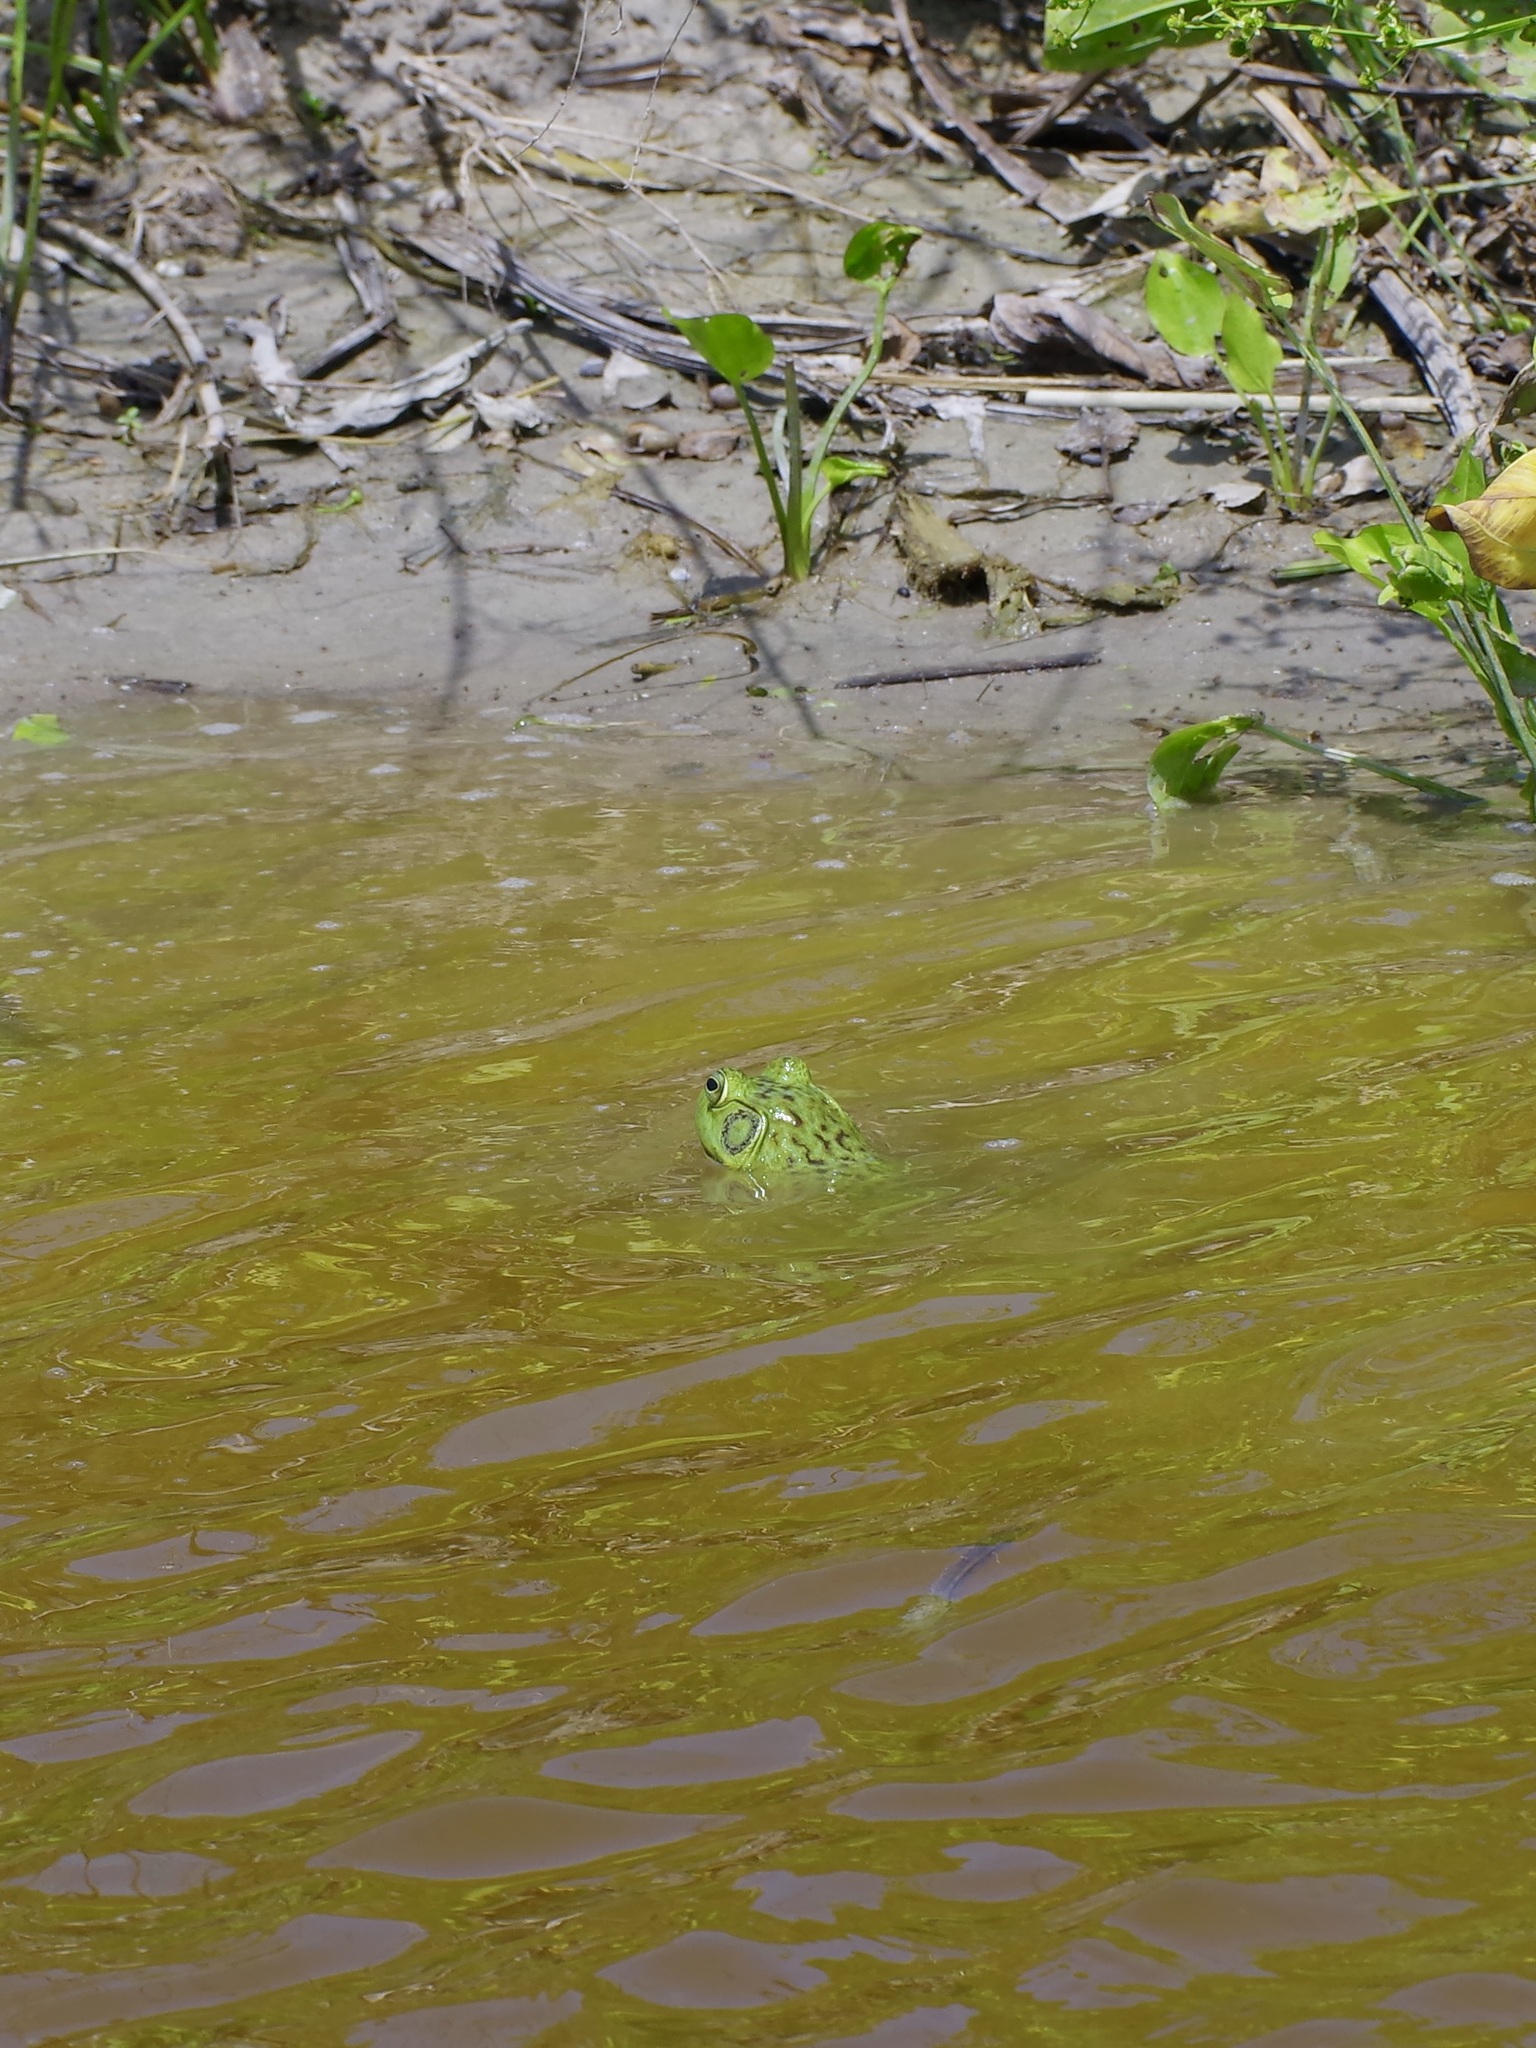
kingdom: Animalia
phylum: Chordata
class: Amphibia
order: Anura
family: Ranidae
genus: Lithobates
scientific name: Lithobates catesbeianus
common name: American bullfrog
